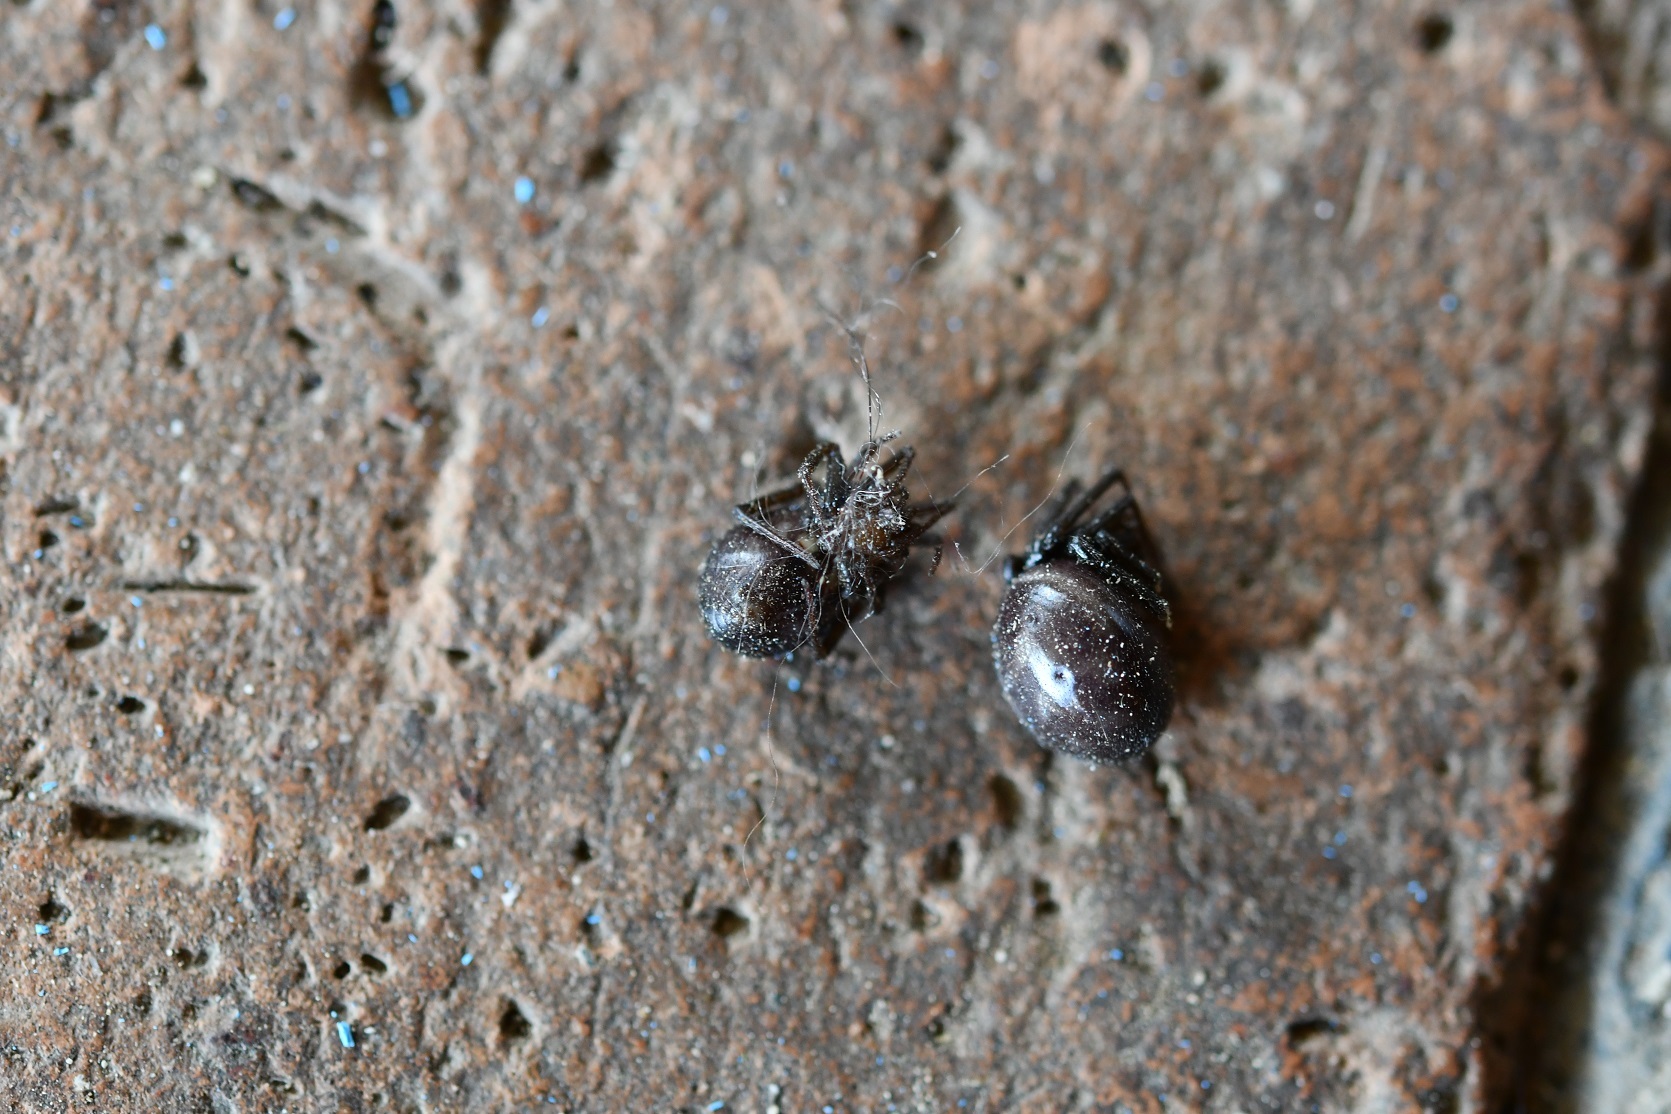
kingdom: Animalia
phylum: Arthropoda
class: Arachnida
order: Araneae
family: Theridiidae
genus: Steatoda
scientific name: Steatoda grossa
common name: False black widow
